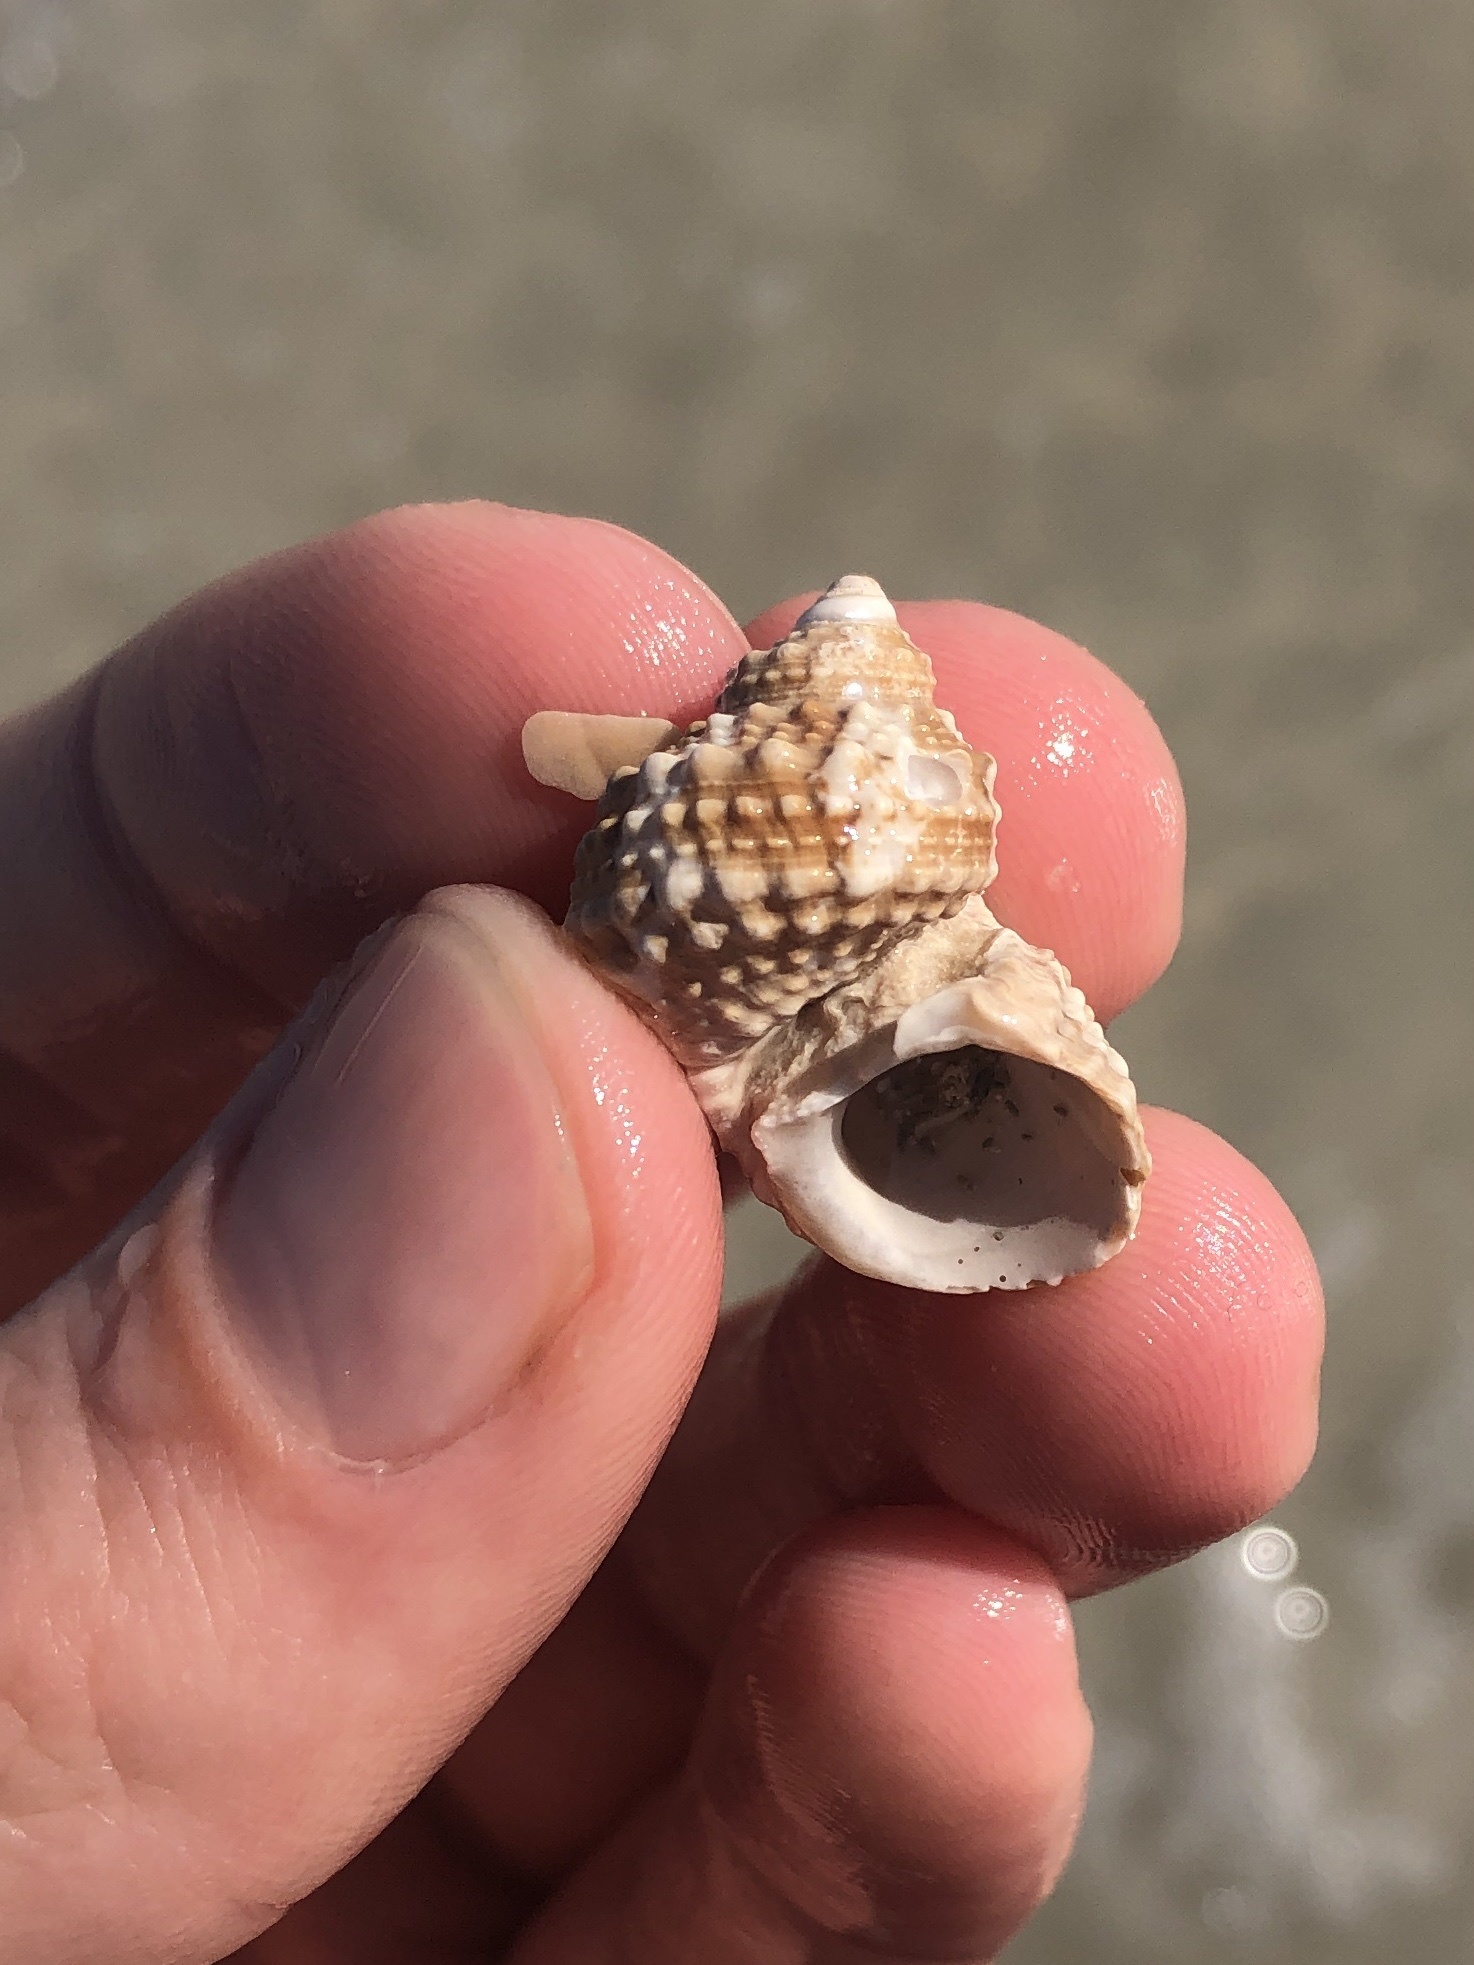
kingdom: Animalia
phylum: Mollusca
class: Gastropoda
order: Trochida
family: Turbinidae
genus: Turbo
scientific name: Turbo castanea
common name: Chestnut turban
